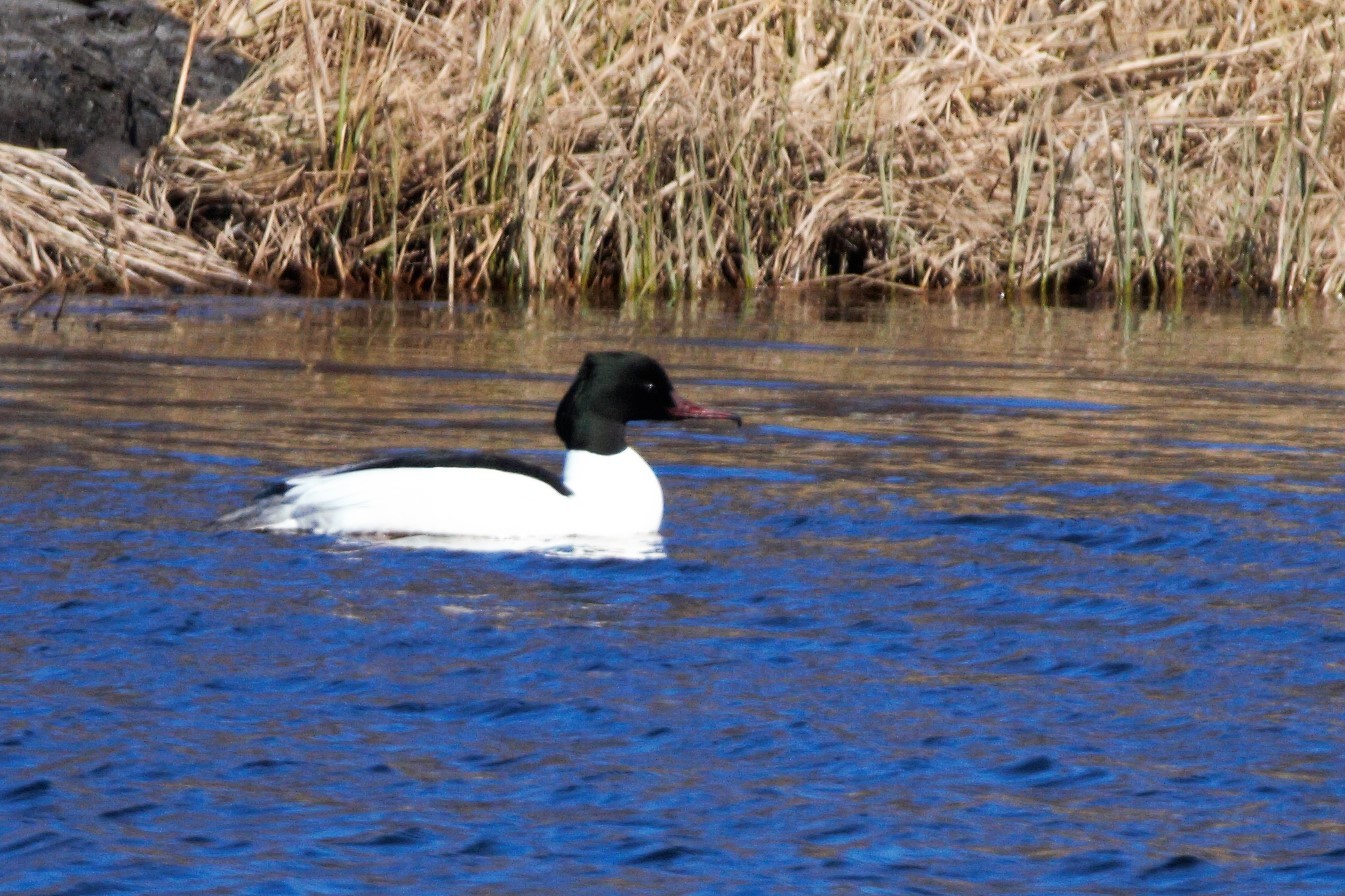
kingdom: Animalia
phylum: Chordata
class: Aves
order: Anseriformes
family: Anatidae
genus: Mergus
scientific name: Mergus merganser
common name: Common merganser
